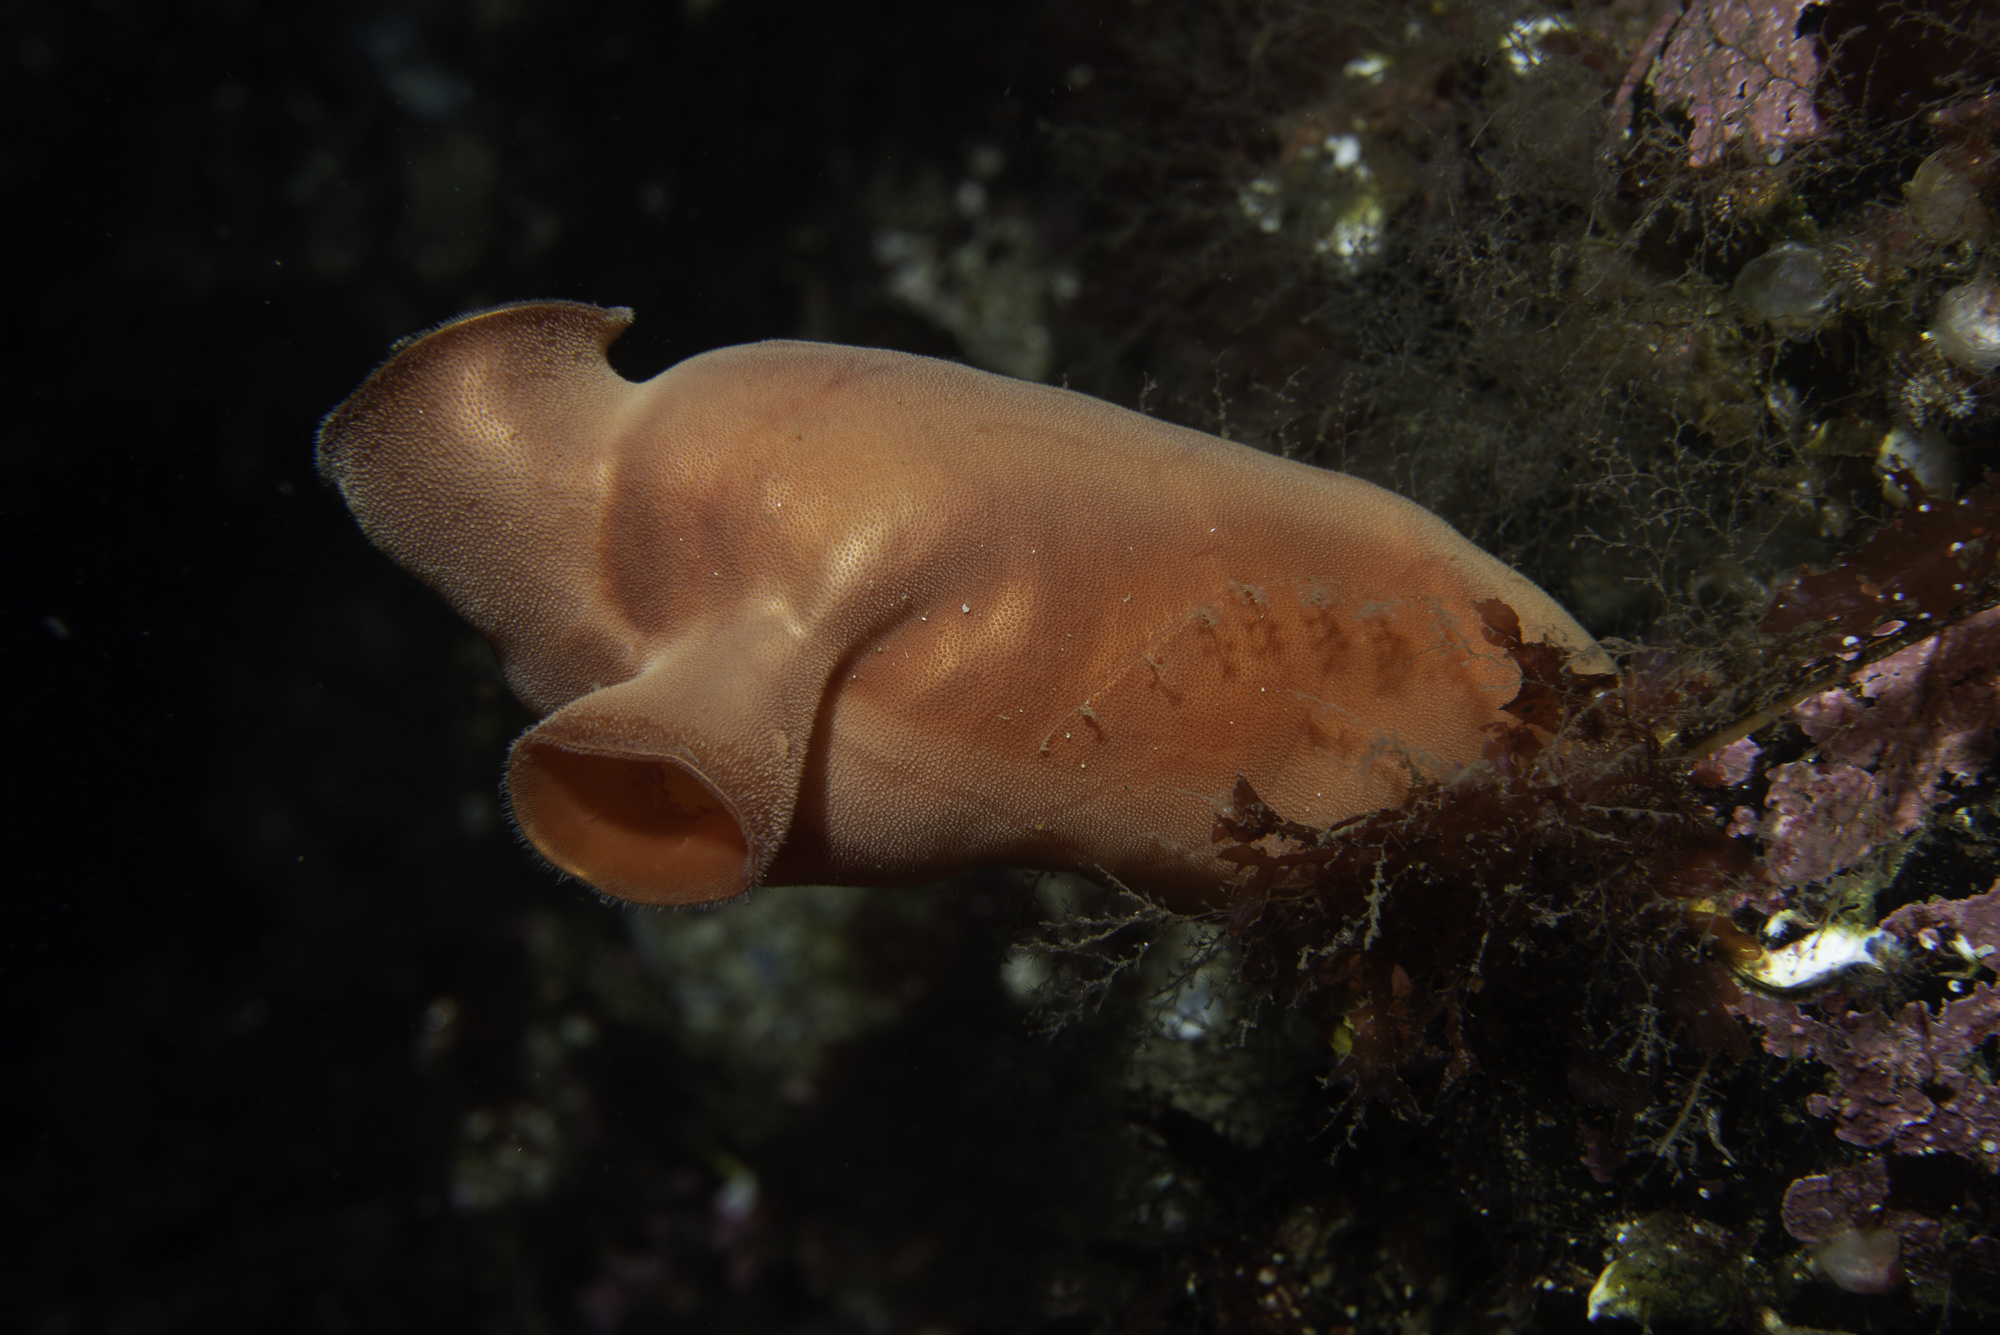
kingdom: Animalia
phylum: Chordata
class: Ascidiacea
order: Stolidobranchia
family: Pyuridae
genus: Halocynthia
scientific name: Halocynthia pyriformis
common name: Sea peach
